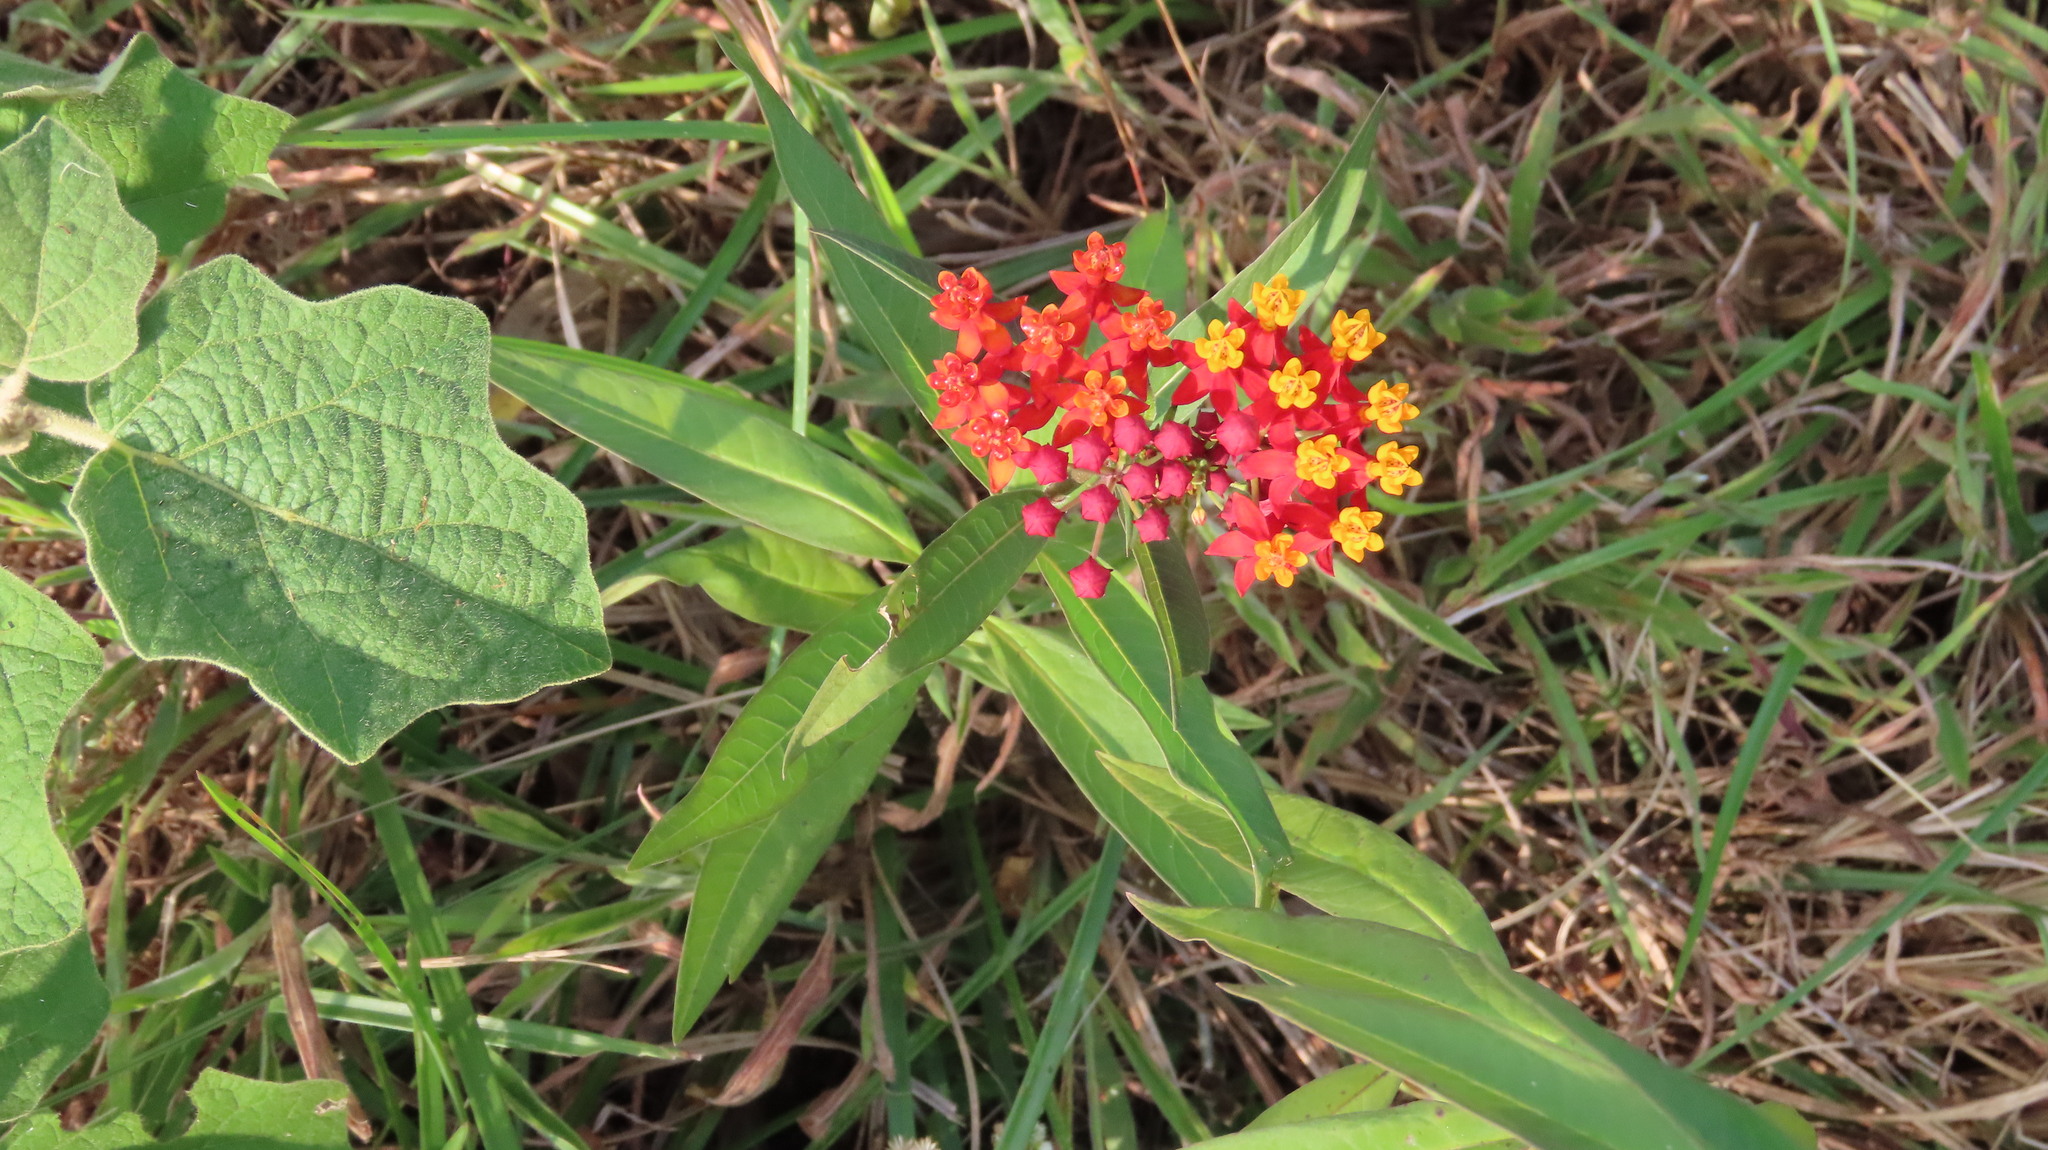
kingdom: Plantae
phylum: Tracheophyta
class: Magnoliopsida
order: Gentianales
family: Apocynaceae
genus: Asclepias
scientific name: Asclepias curassavica
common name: Bloodflower
